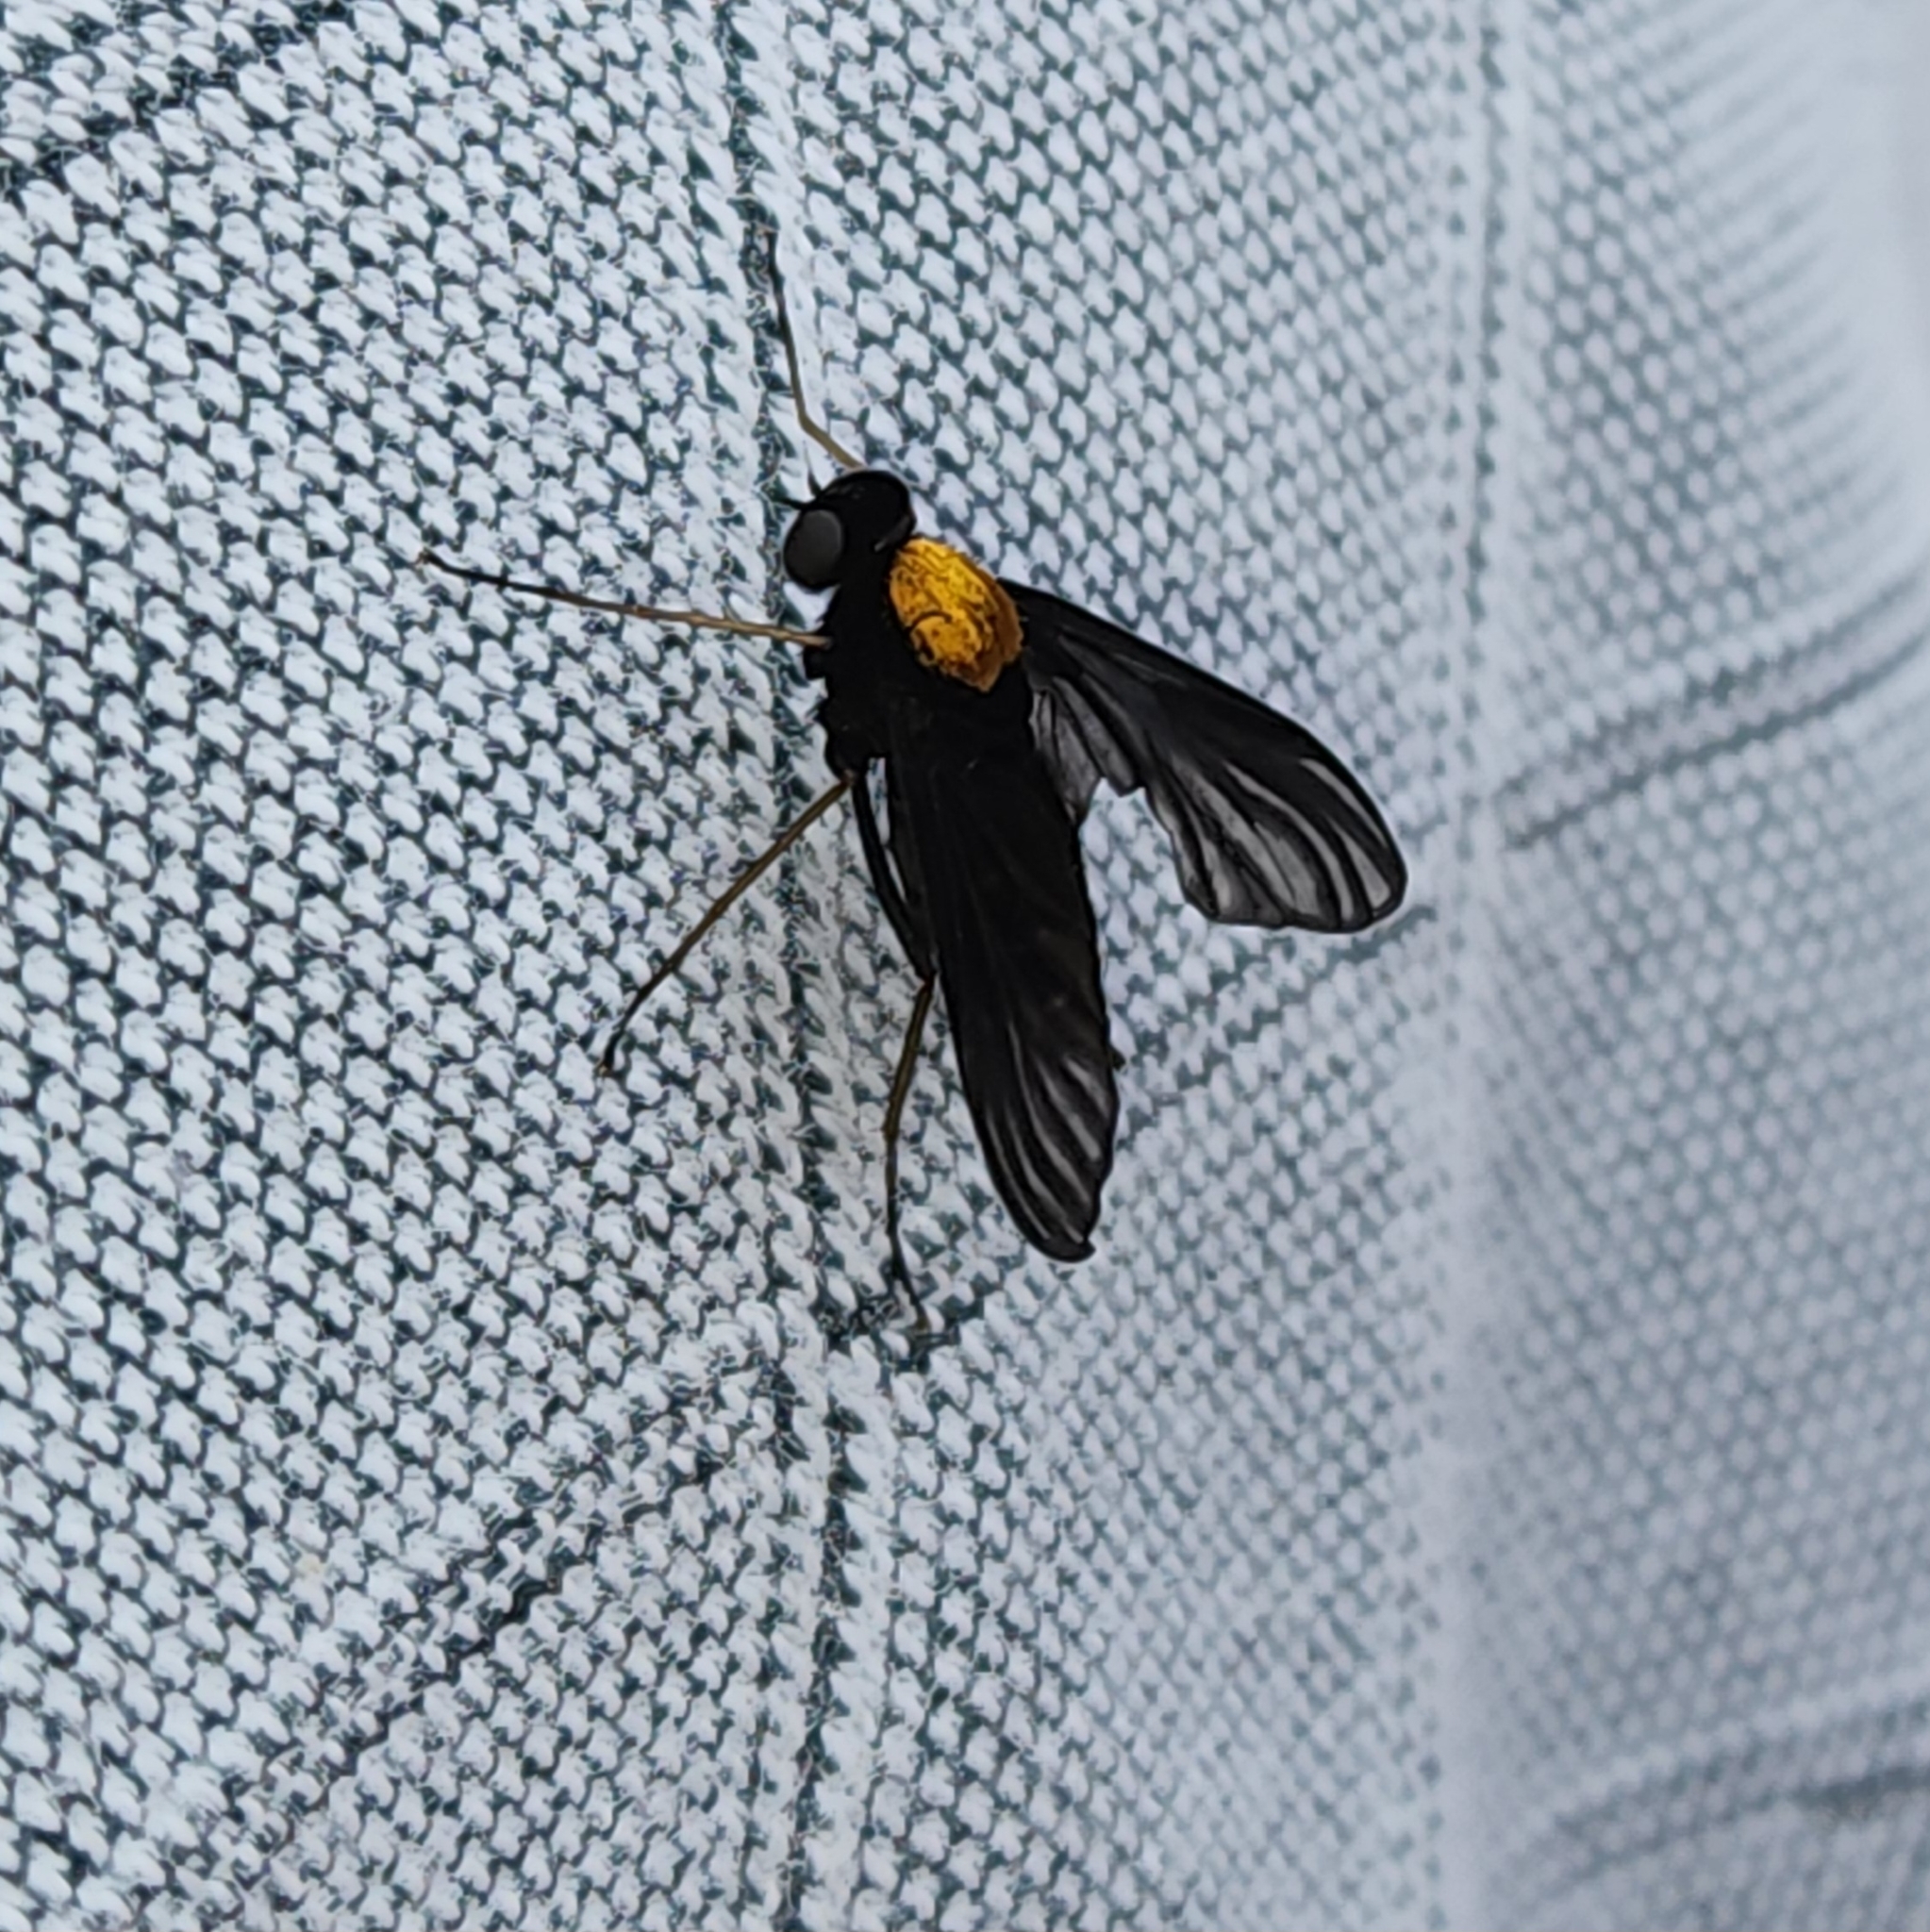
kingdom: Animalia
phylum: Arthropoda
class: Insecta
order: Diptera
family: Rhagionidae
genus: Chrysopilus
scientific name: Chrysopilus thoracicus
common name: Golden-backed snipe fly
